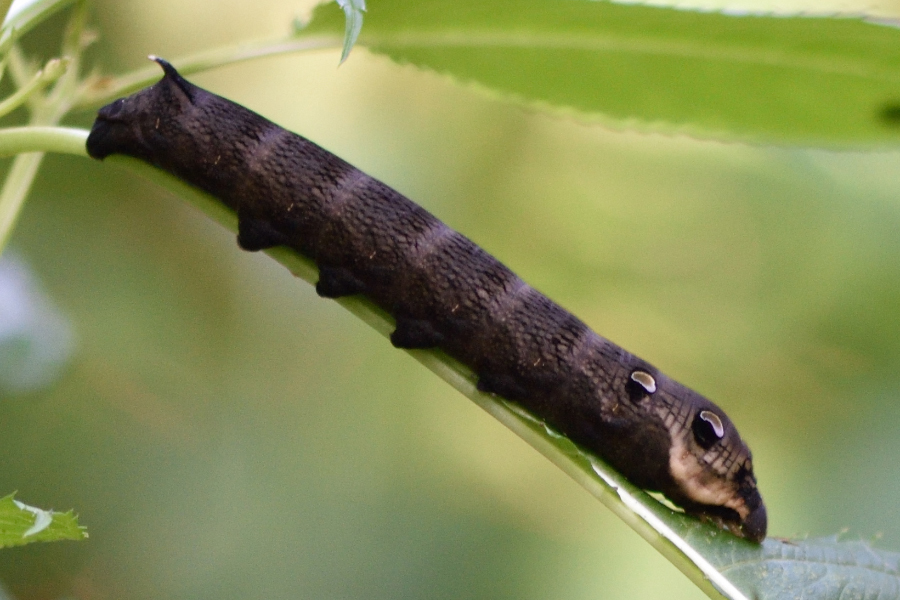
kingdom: Animalia
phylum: Arthropoda
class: Insecta
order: Lepidoptera
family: Sphingidae
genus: Deilephila
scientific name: Deilephila elpenor
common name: Elephant hawk-moth
